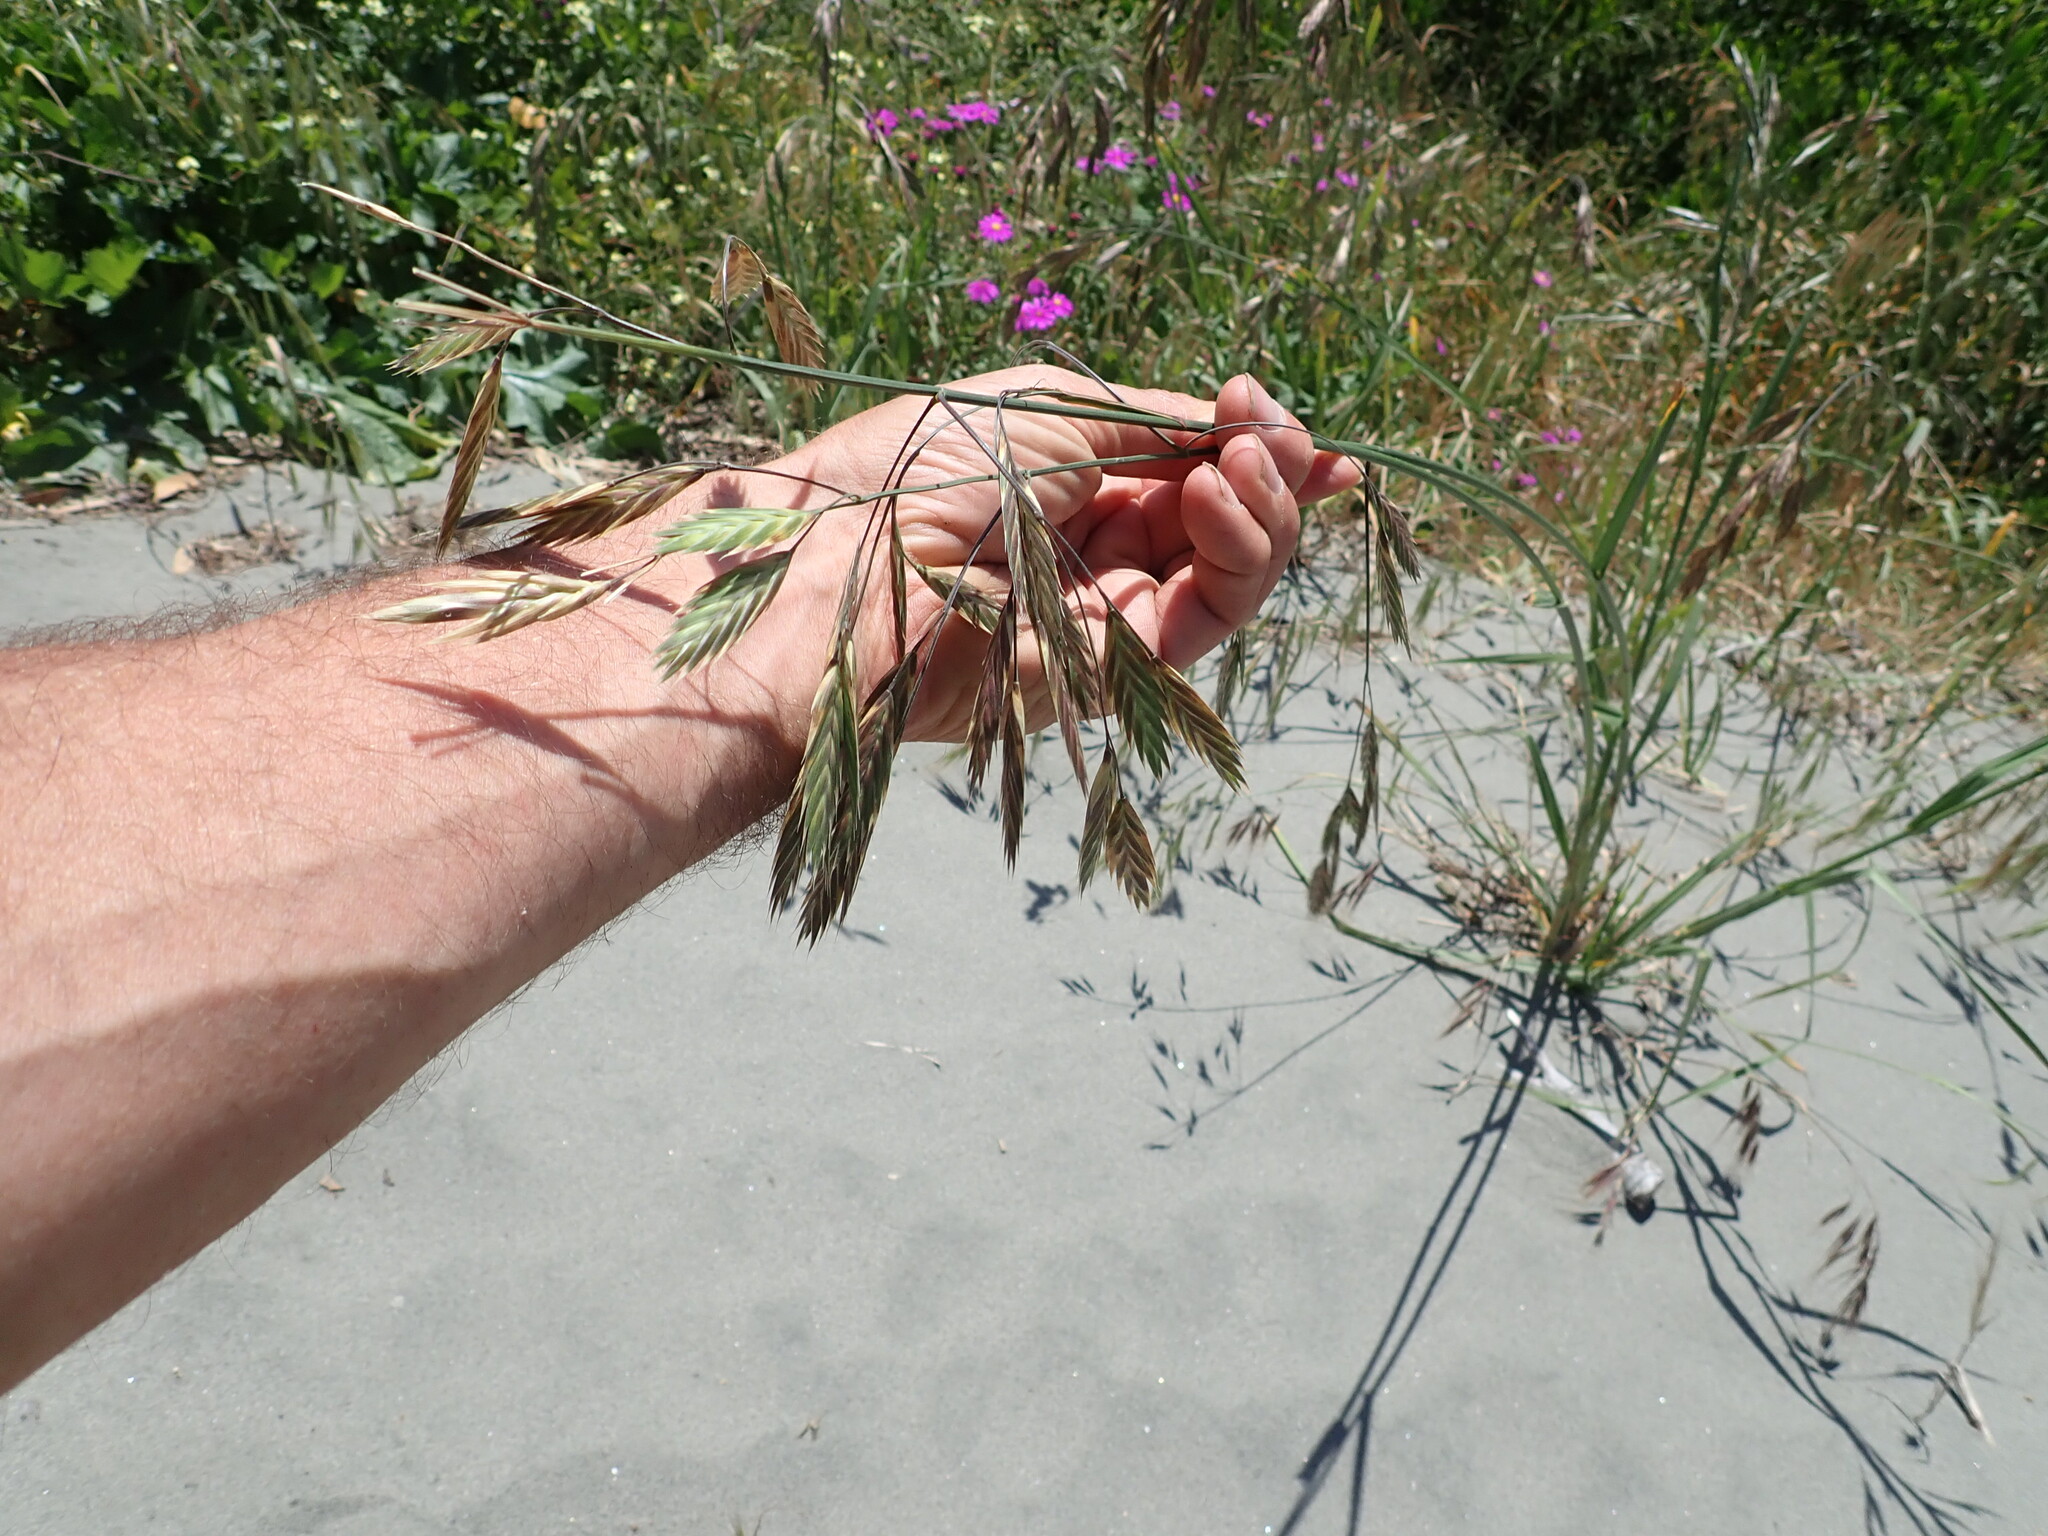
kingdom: Plantae
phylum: Tracheophyta
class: Liliopsida
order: Poales
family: Poaceae
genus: Bromus
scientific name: Bromus catharticus
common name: Rescuegrass
